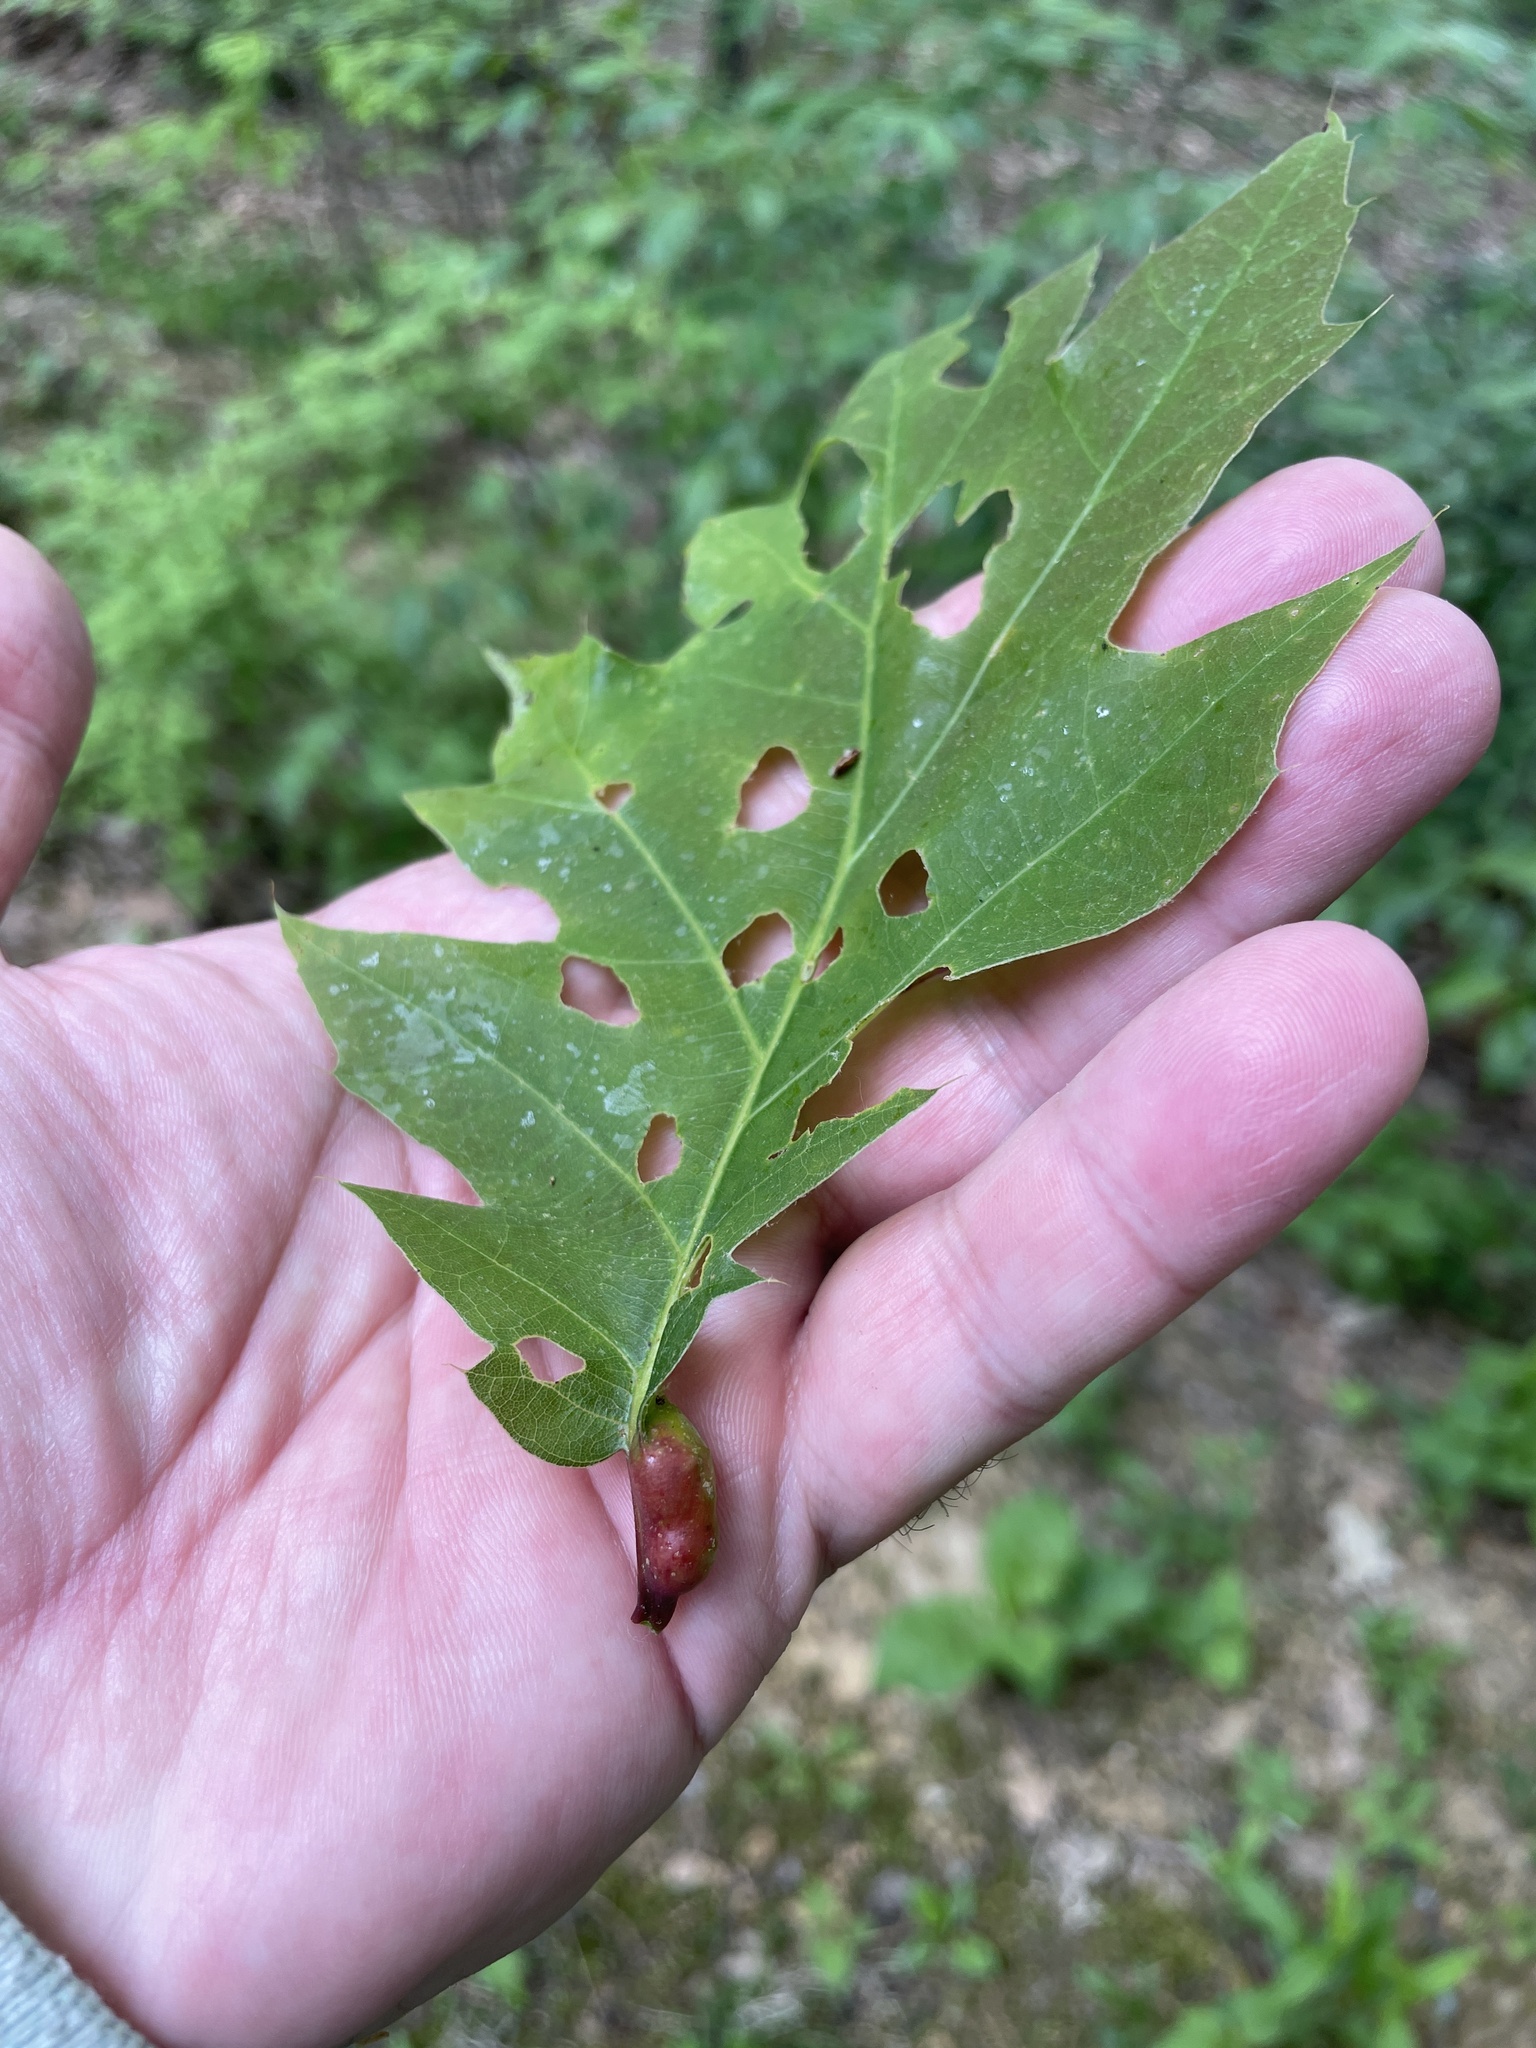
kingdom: Animalia
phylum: Arthropoda
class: Insecta
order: Hymenoptera
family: Cynipidae
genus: Melikaiella
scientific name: Melikaiella tumifica
